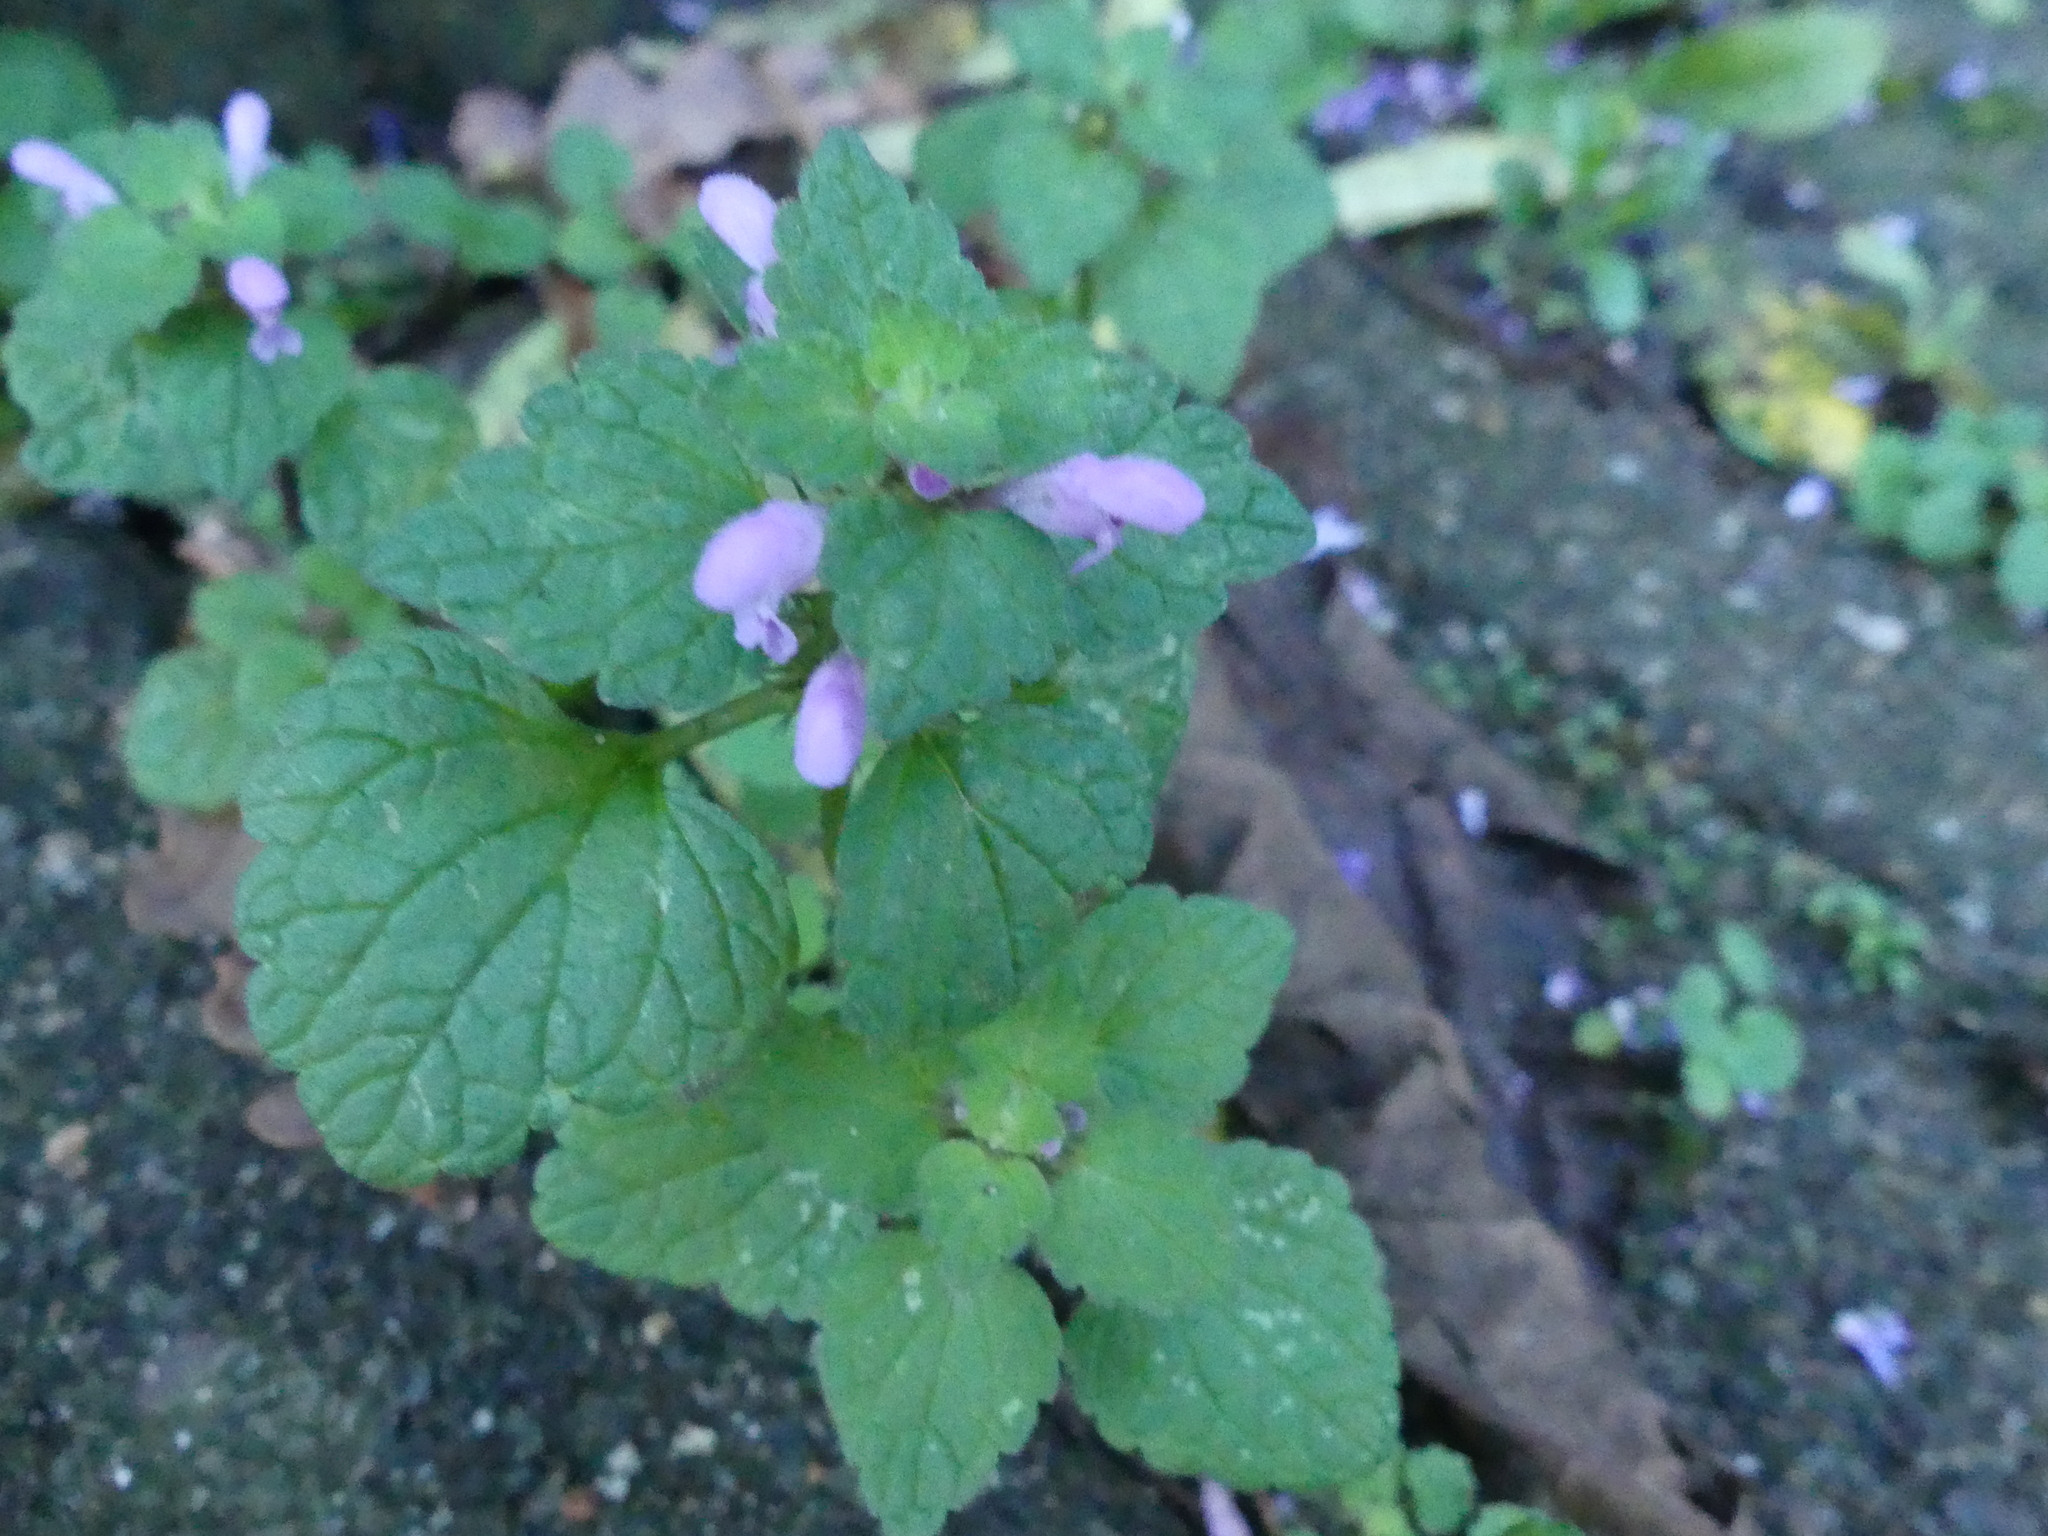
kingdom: Plantae
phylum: Tracheophyta
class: Magnoliopsida
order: Lamiales
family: Lamiaceae
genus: Lamium
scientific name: Lamium purpureum
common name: Red dead-nettle
